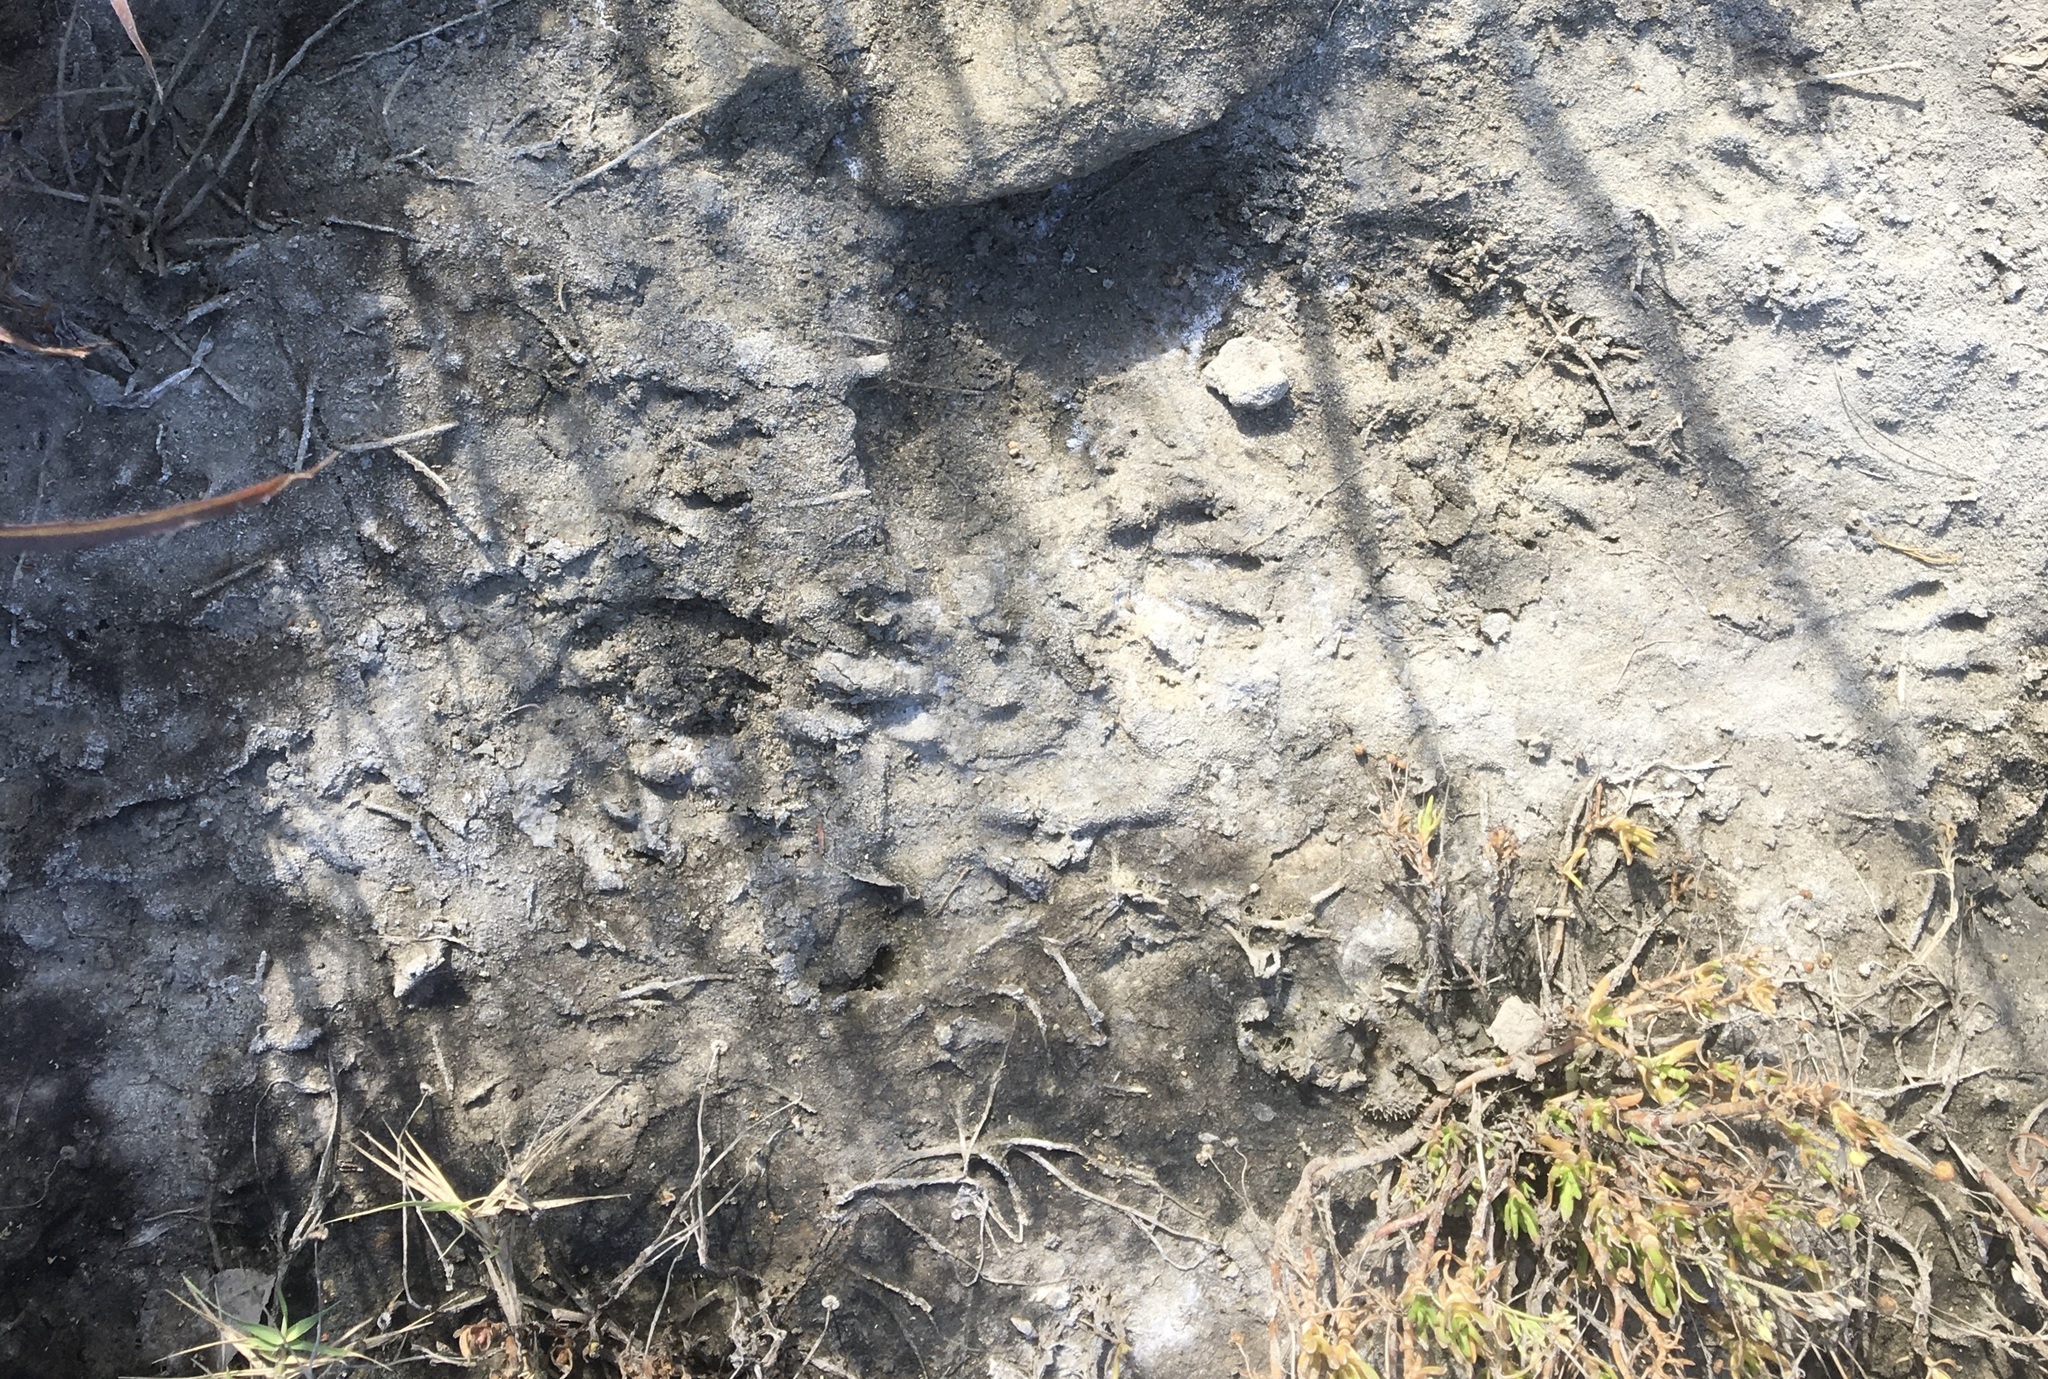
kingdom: Animalia
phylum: Chordata
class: Mammalia
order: Carnivora
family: Procyonidae
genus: Procyon
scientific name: Procyon lotor
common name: Raccoon
